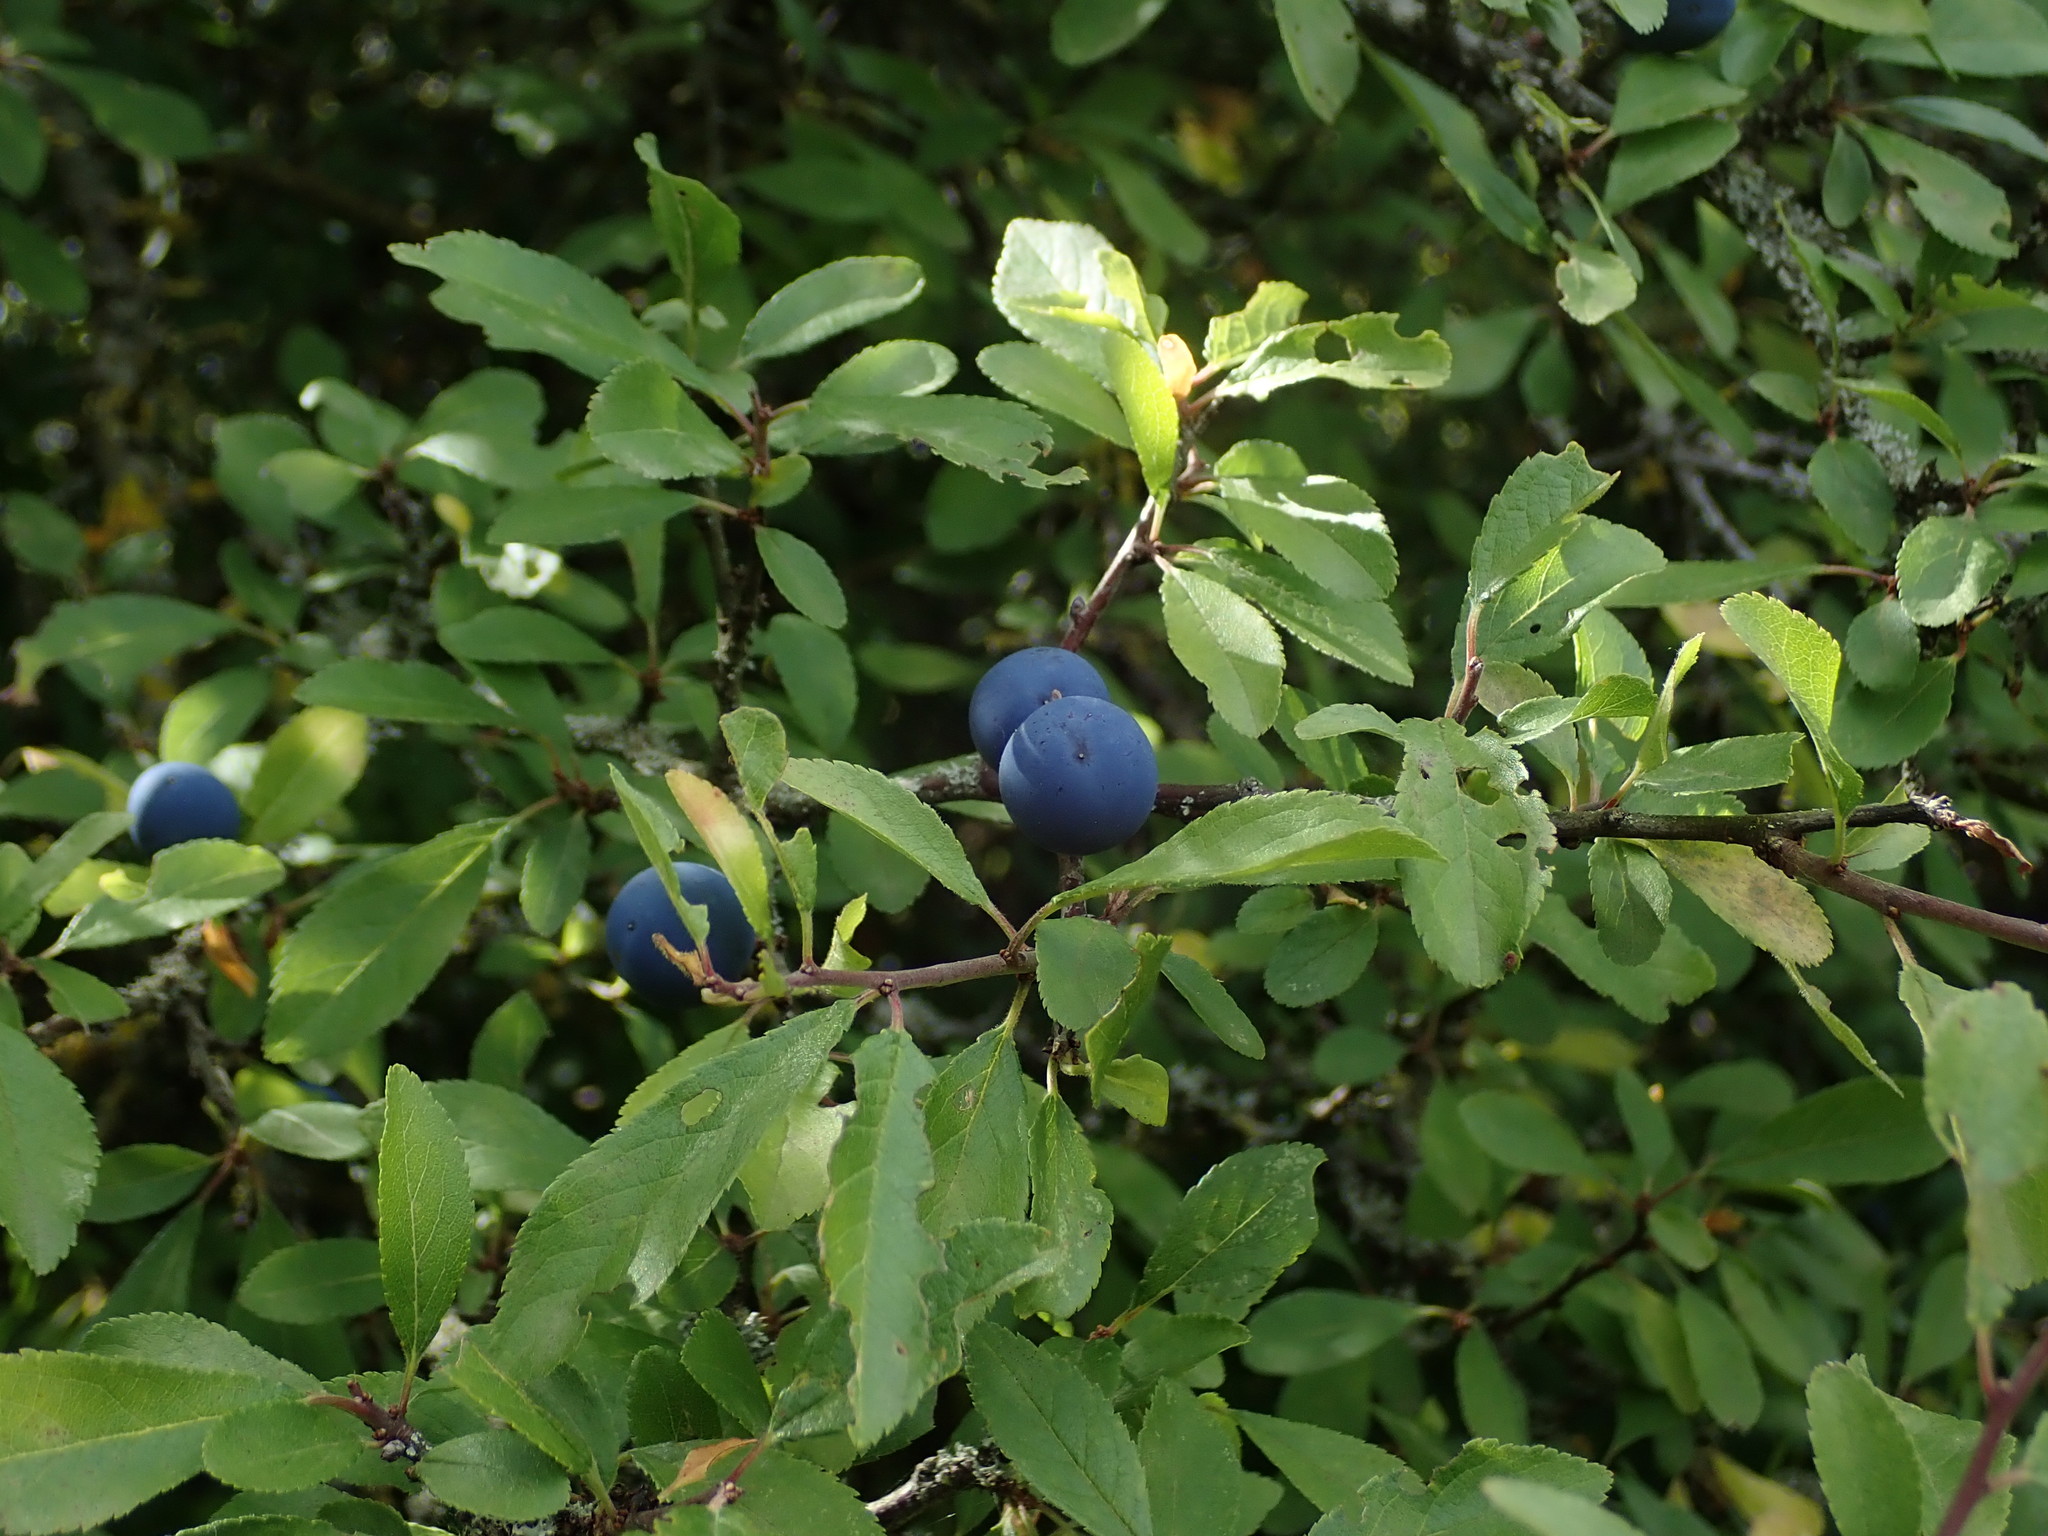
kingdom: Plantae
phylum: Tracheophyta
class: Magnoliopsida
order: Rosales
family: Rosaceae
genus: Prunus
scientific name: Prunus spinosa
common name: Blackthorn
